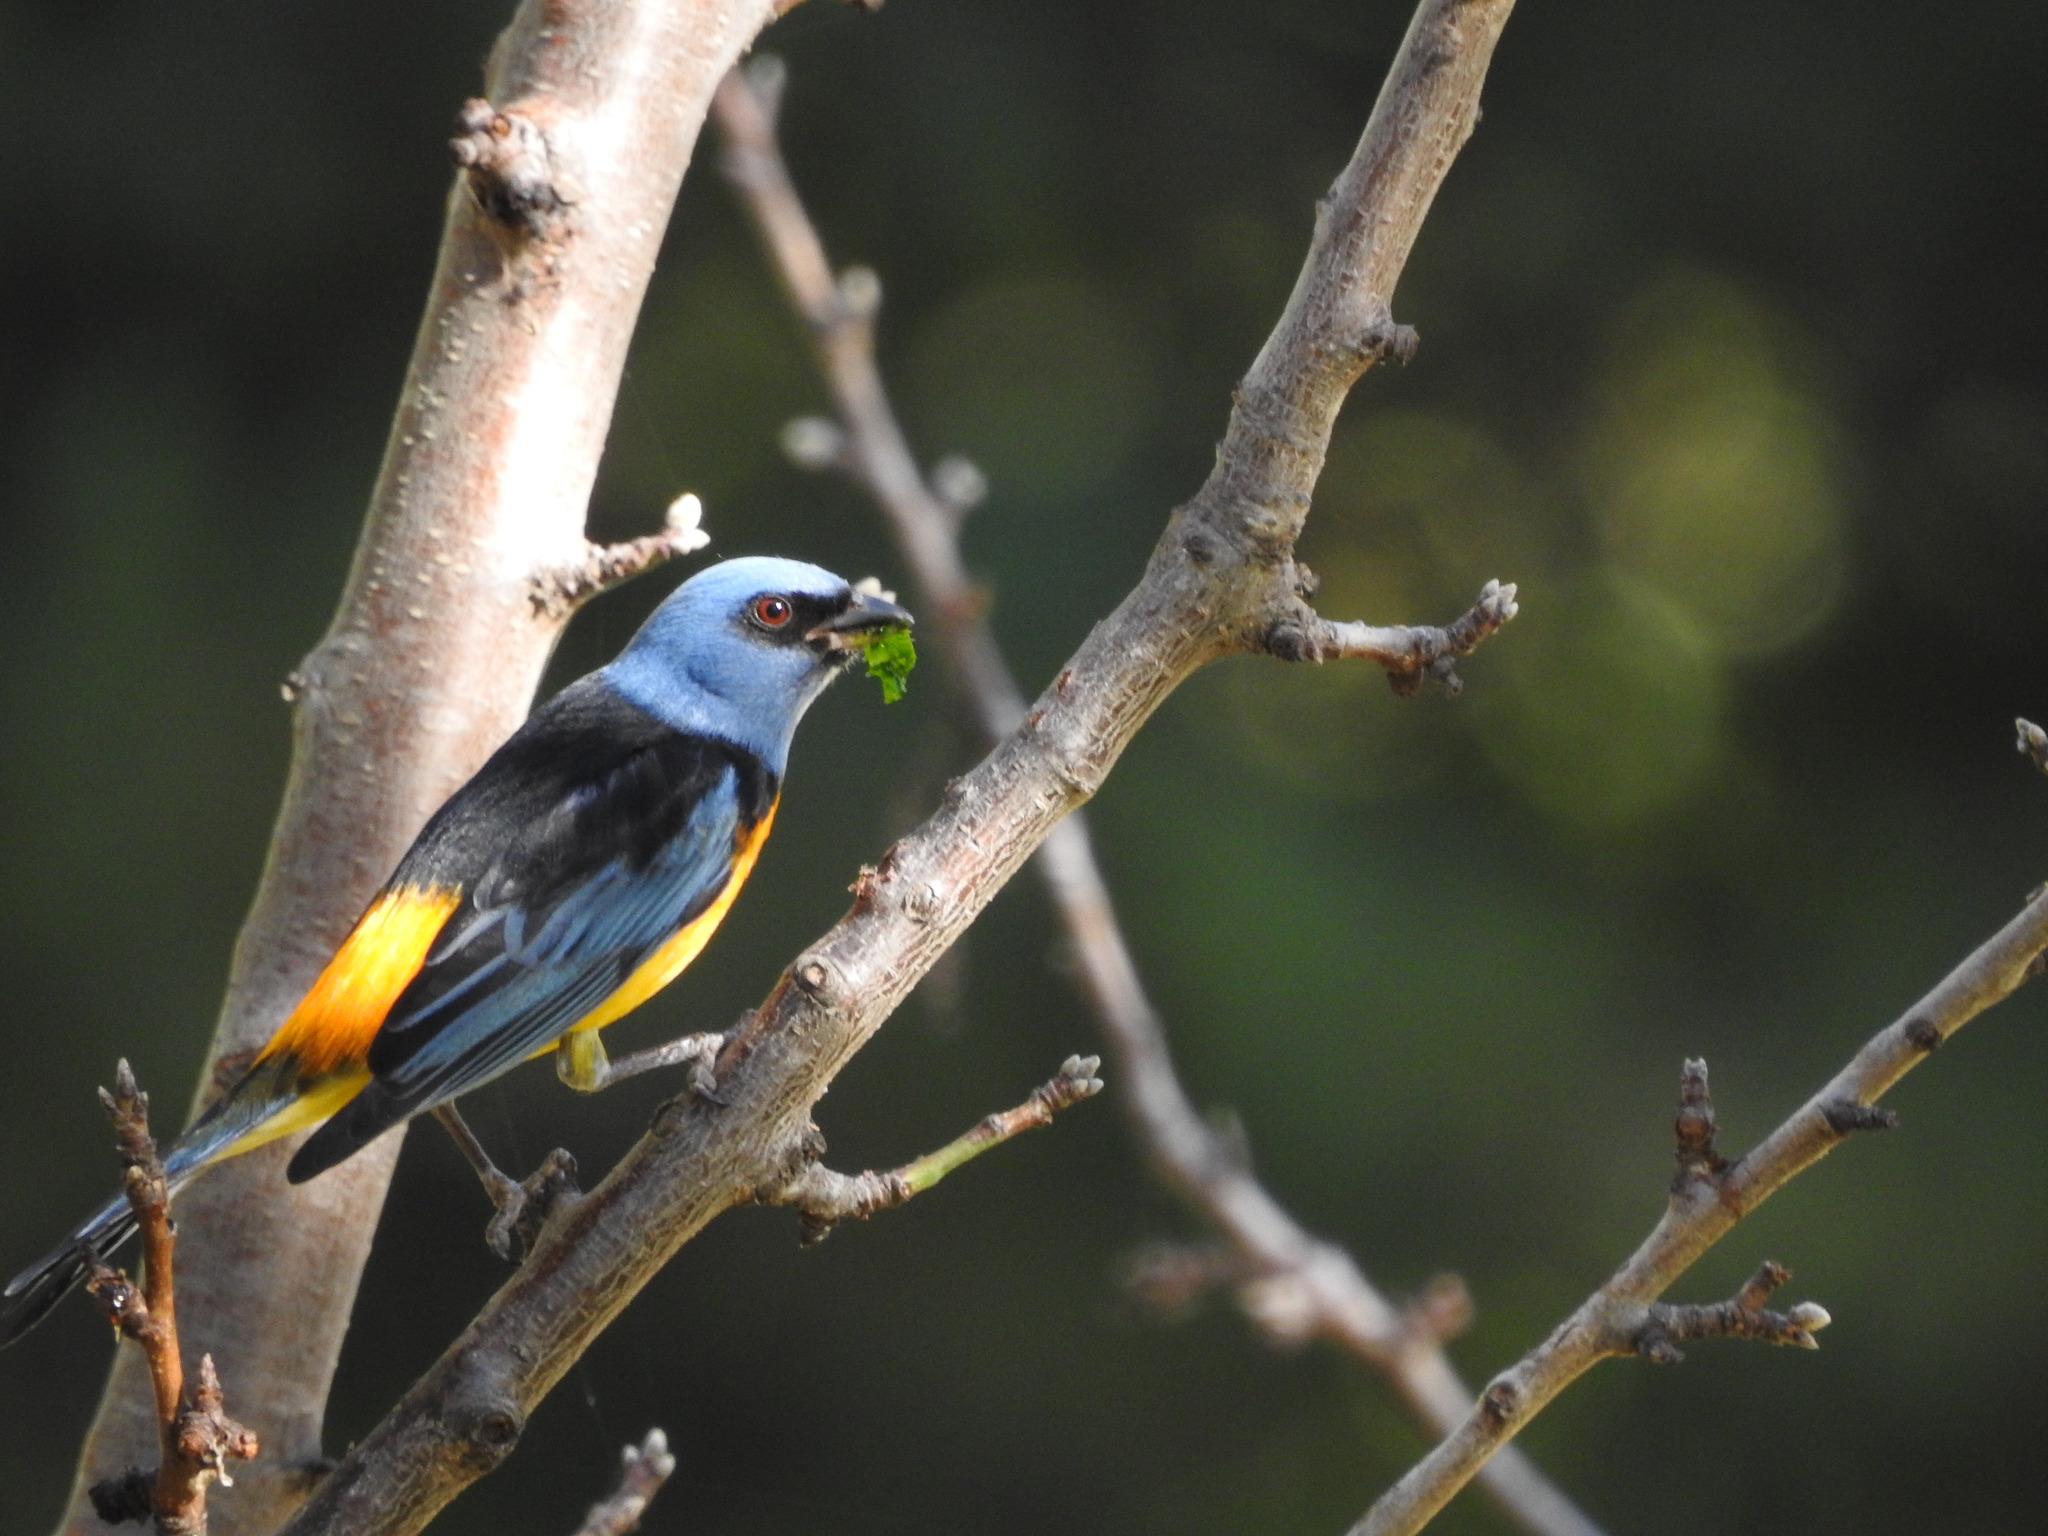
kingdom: Animalia
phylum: Chordata
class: Aves
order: Passeriformes
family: Thraupidae
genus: Rauenia
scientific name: Rauenia bonariensis
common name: Blue-and-yellow tanager
